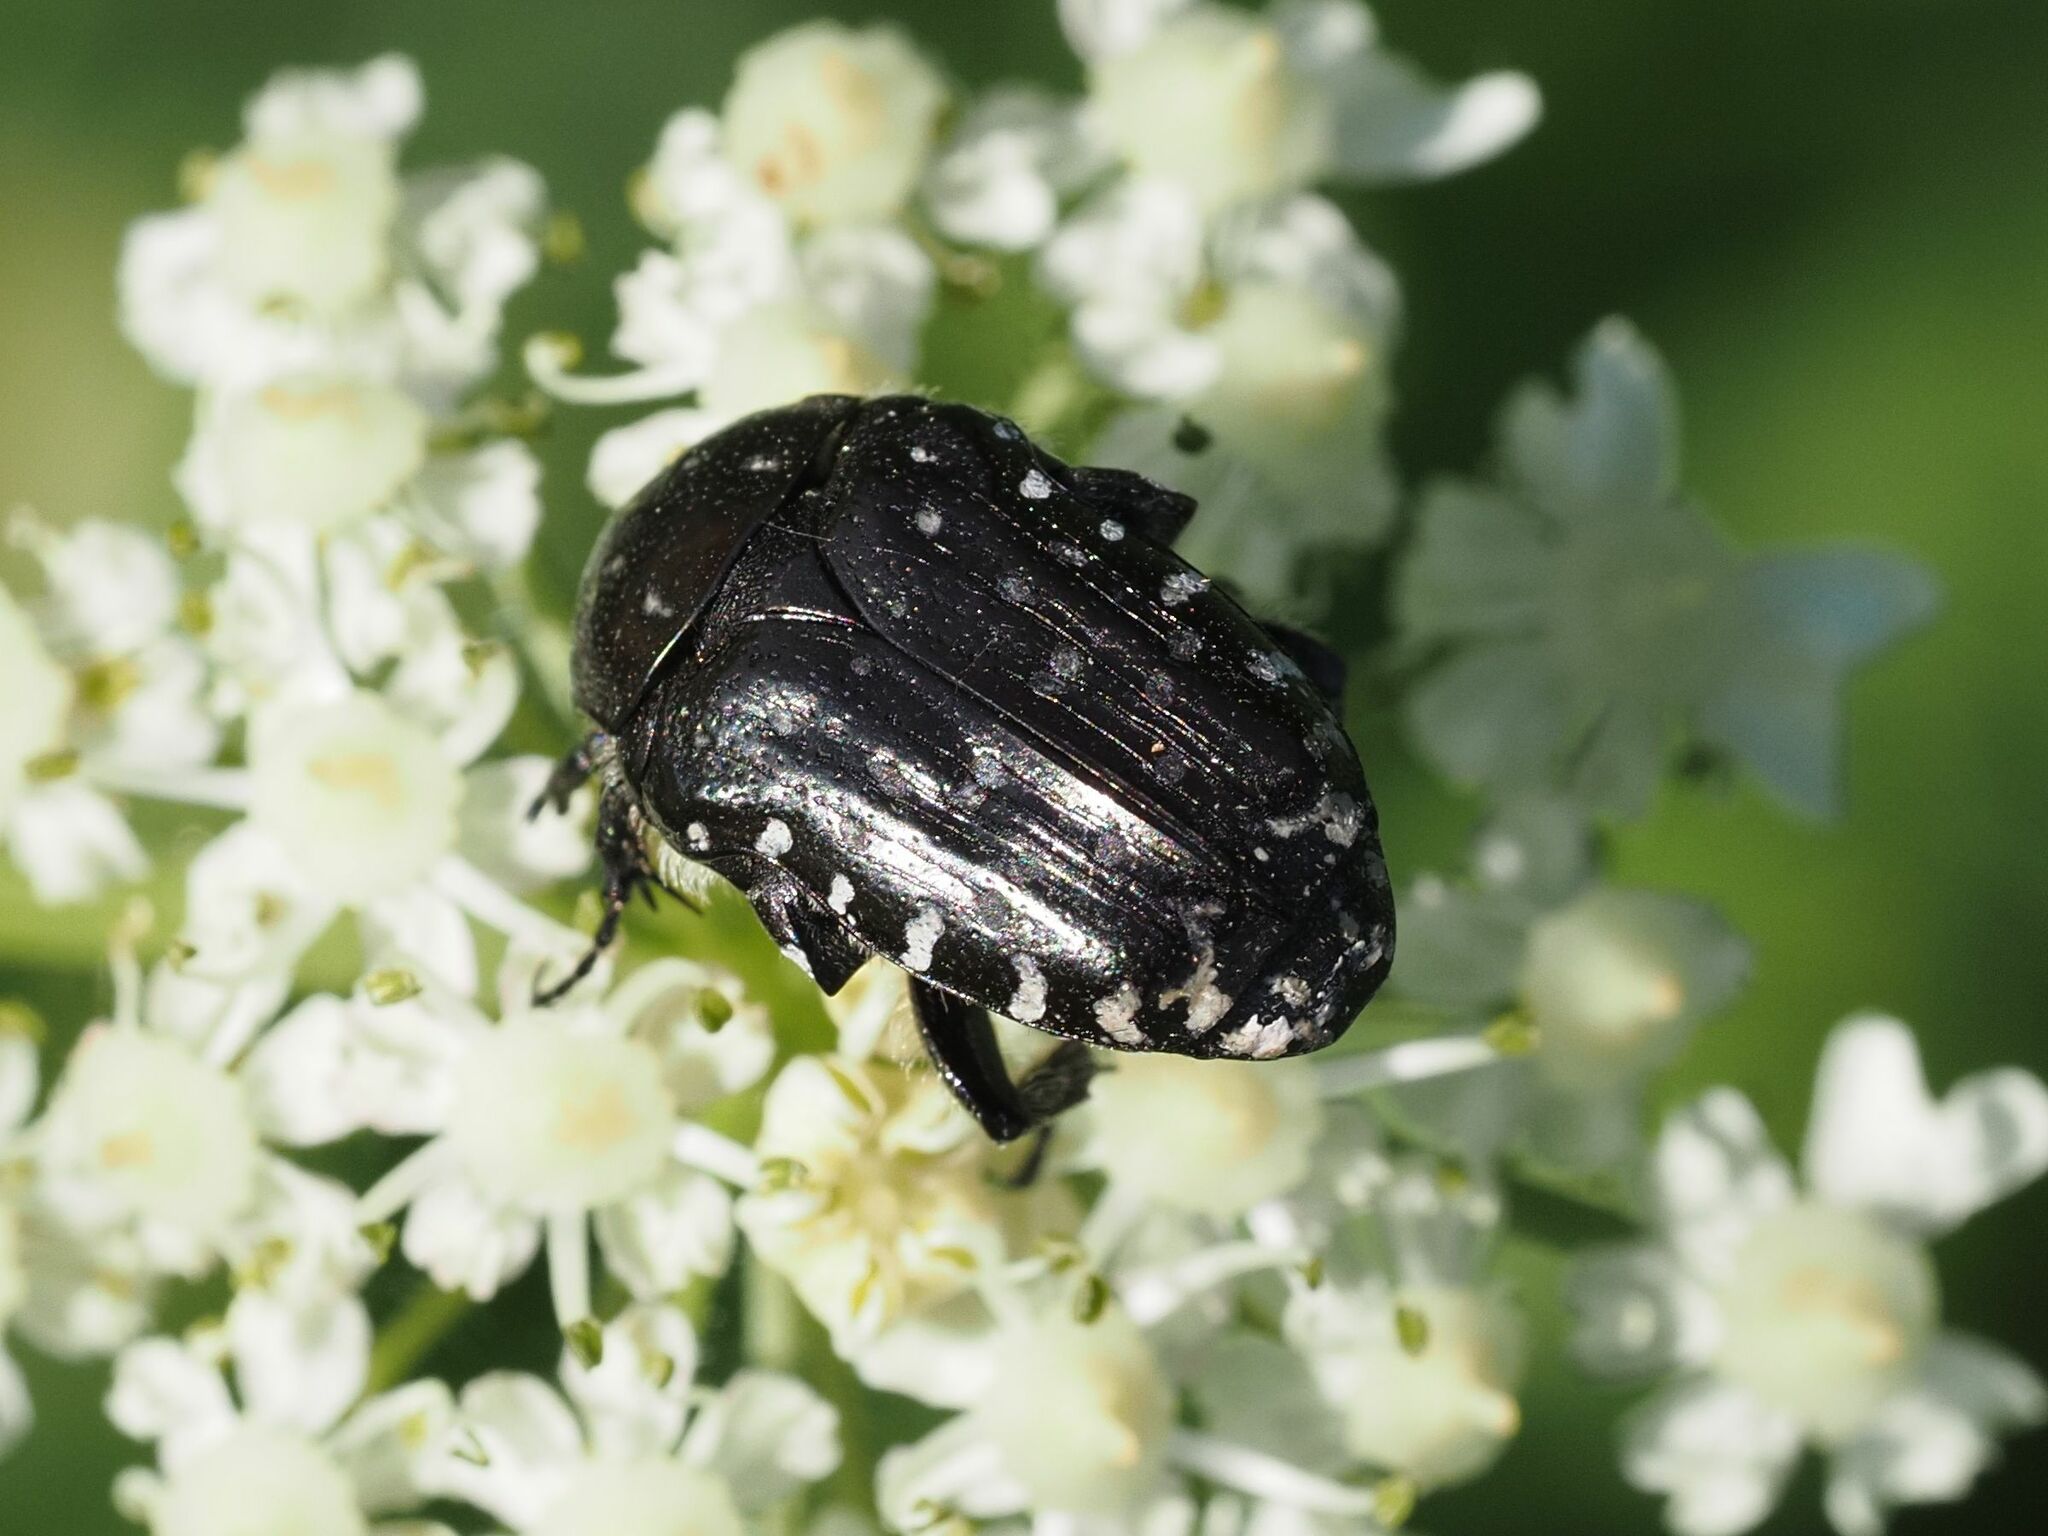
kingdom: Animalia
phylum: Arthropoda
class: Insecta
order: Coleoptera
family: Scarabaeidae
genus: Oxythyrea
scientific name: Oxythyrea funesta
